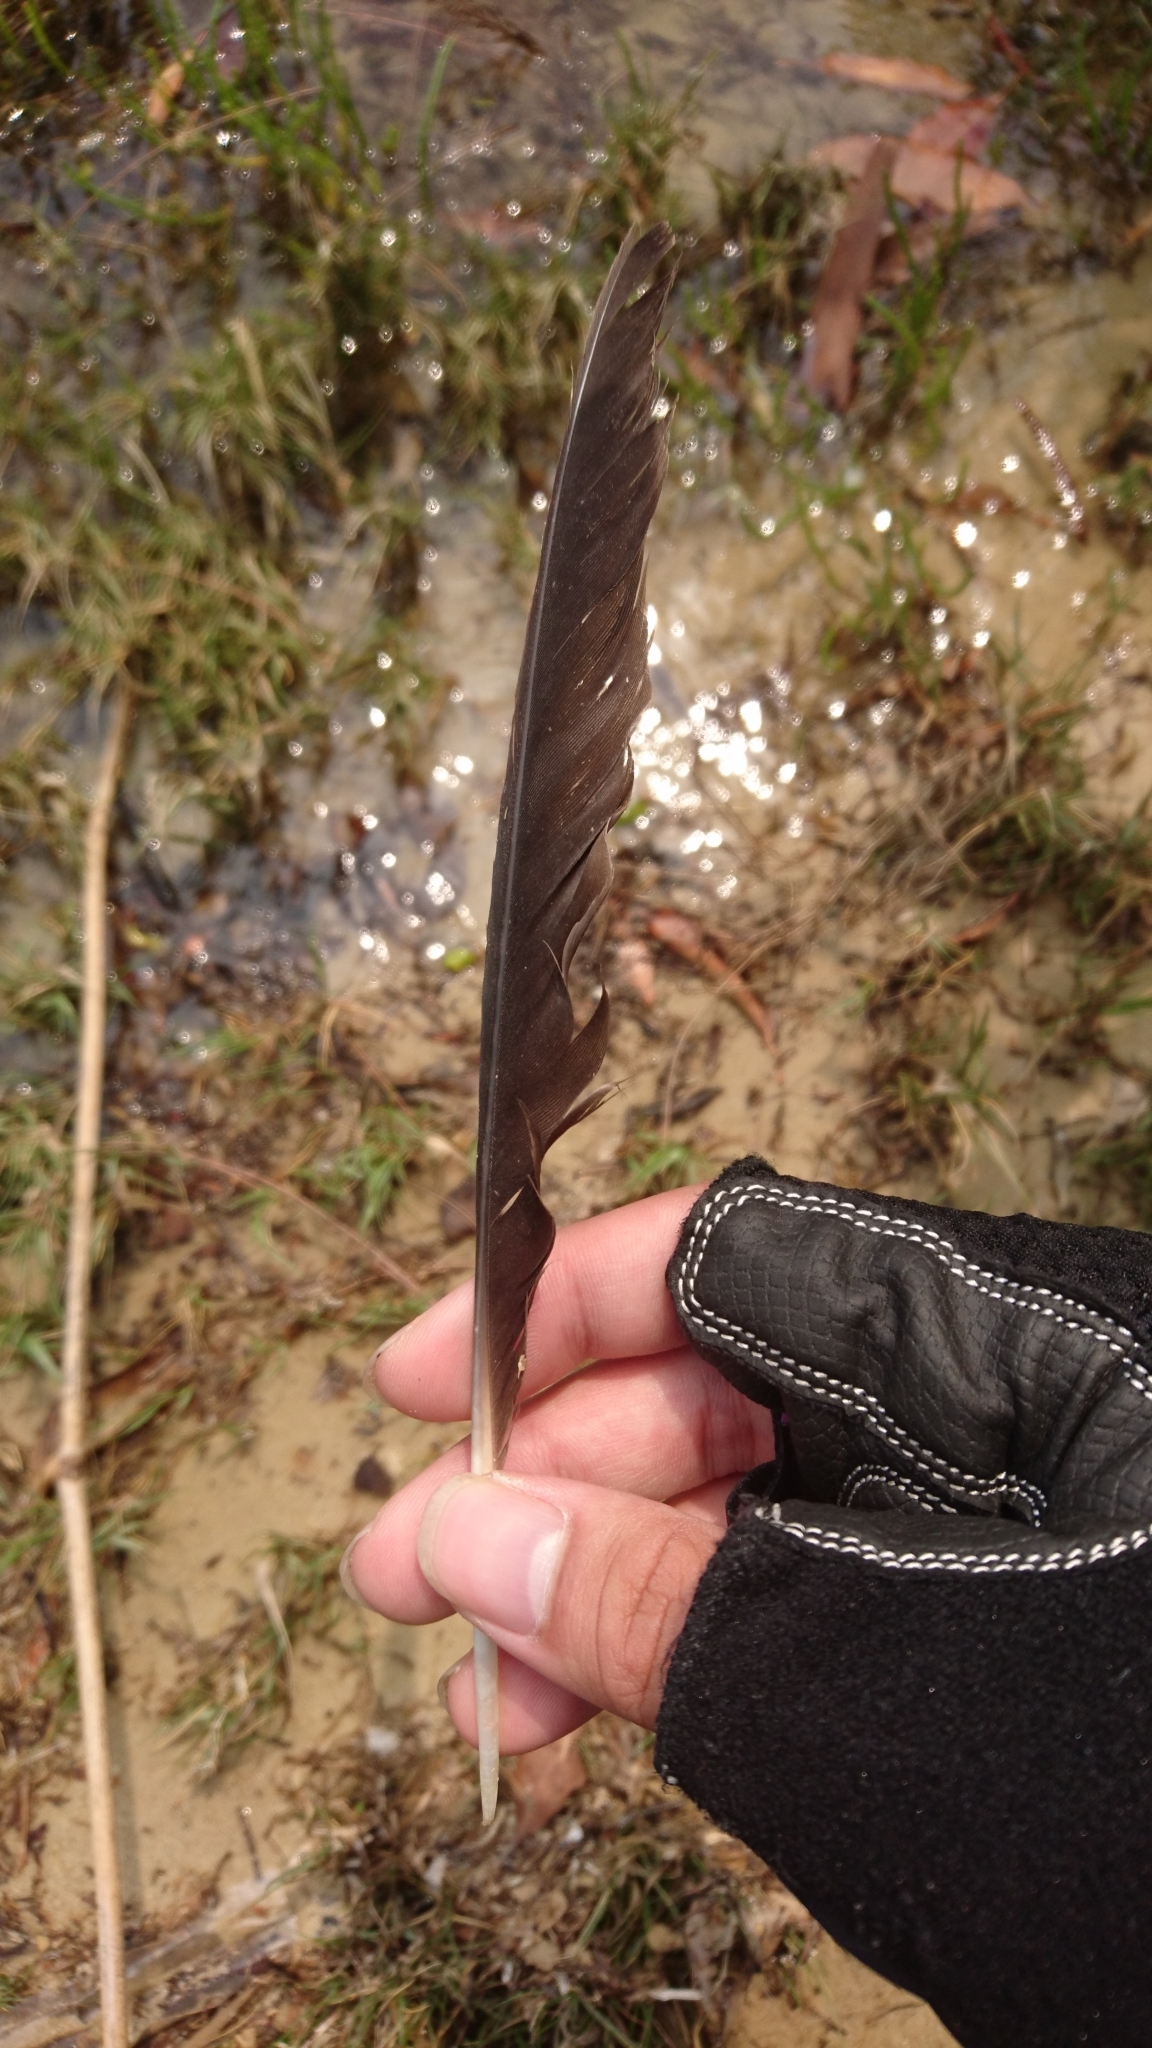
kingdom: Animalia
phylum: Chordata
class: Aves
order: Charadriiformes
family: Charadriidae
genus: Vanellus
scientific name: Vanellus miles
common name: Masked lapwing
